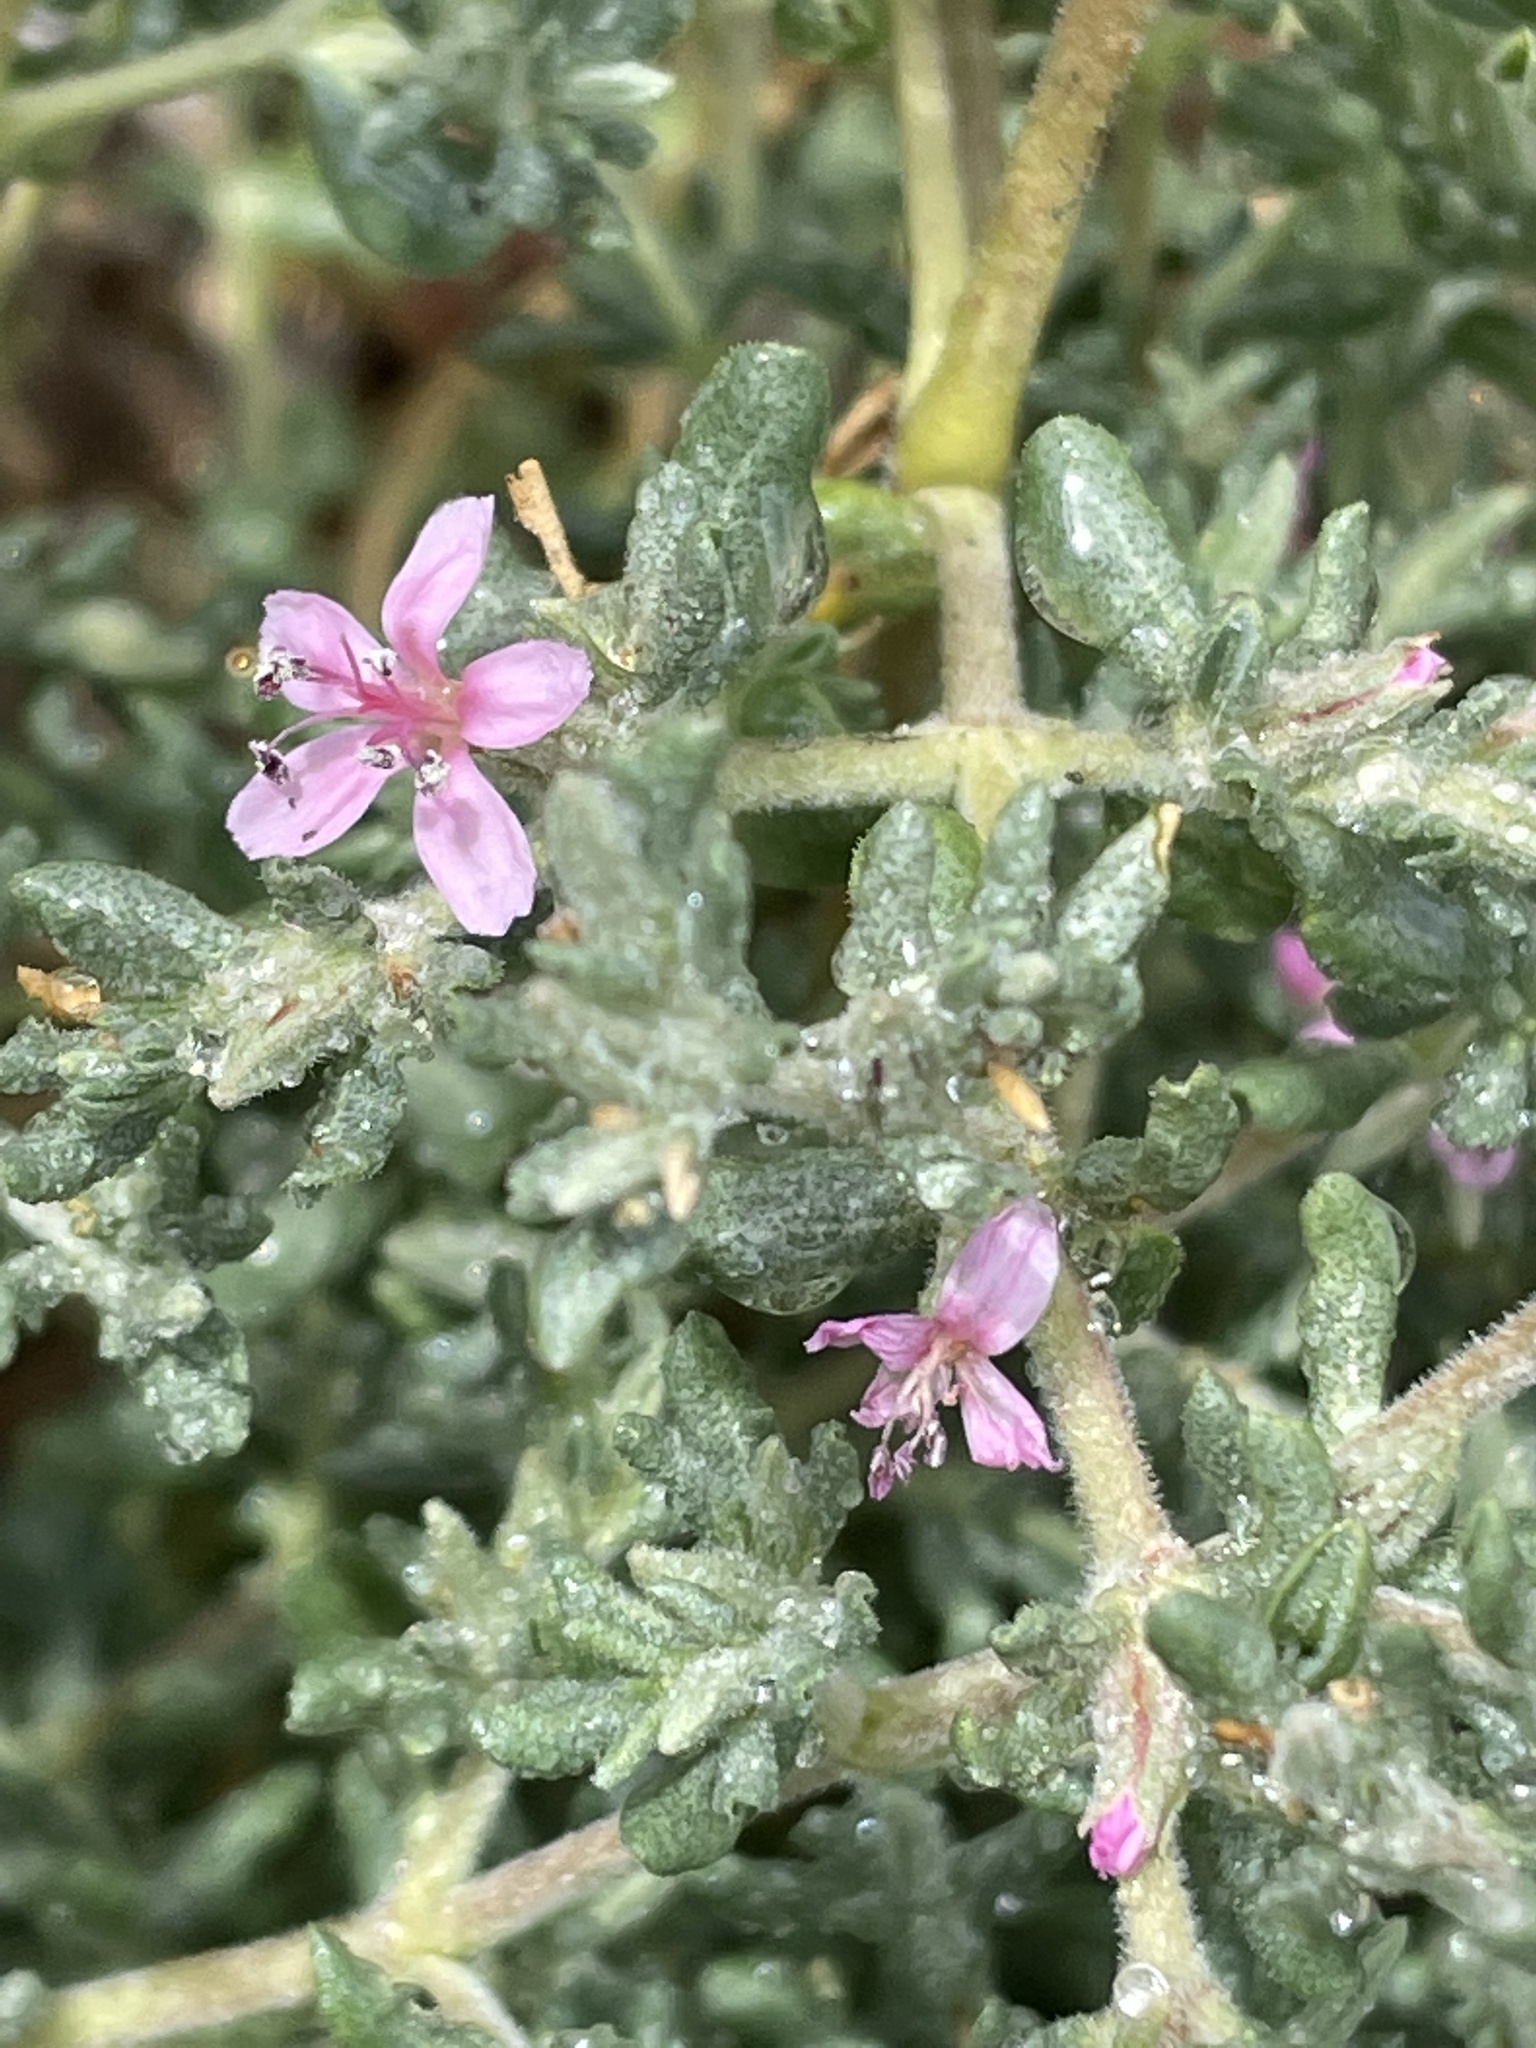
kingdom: Plantae
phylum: Tracheophyta
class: Magnoliopsida
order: Caryophyllales
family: Frankeniaceae
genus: Frankenia
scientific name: Frankenia salina
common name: Alkali seaheath
